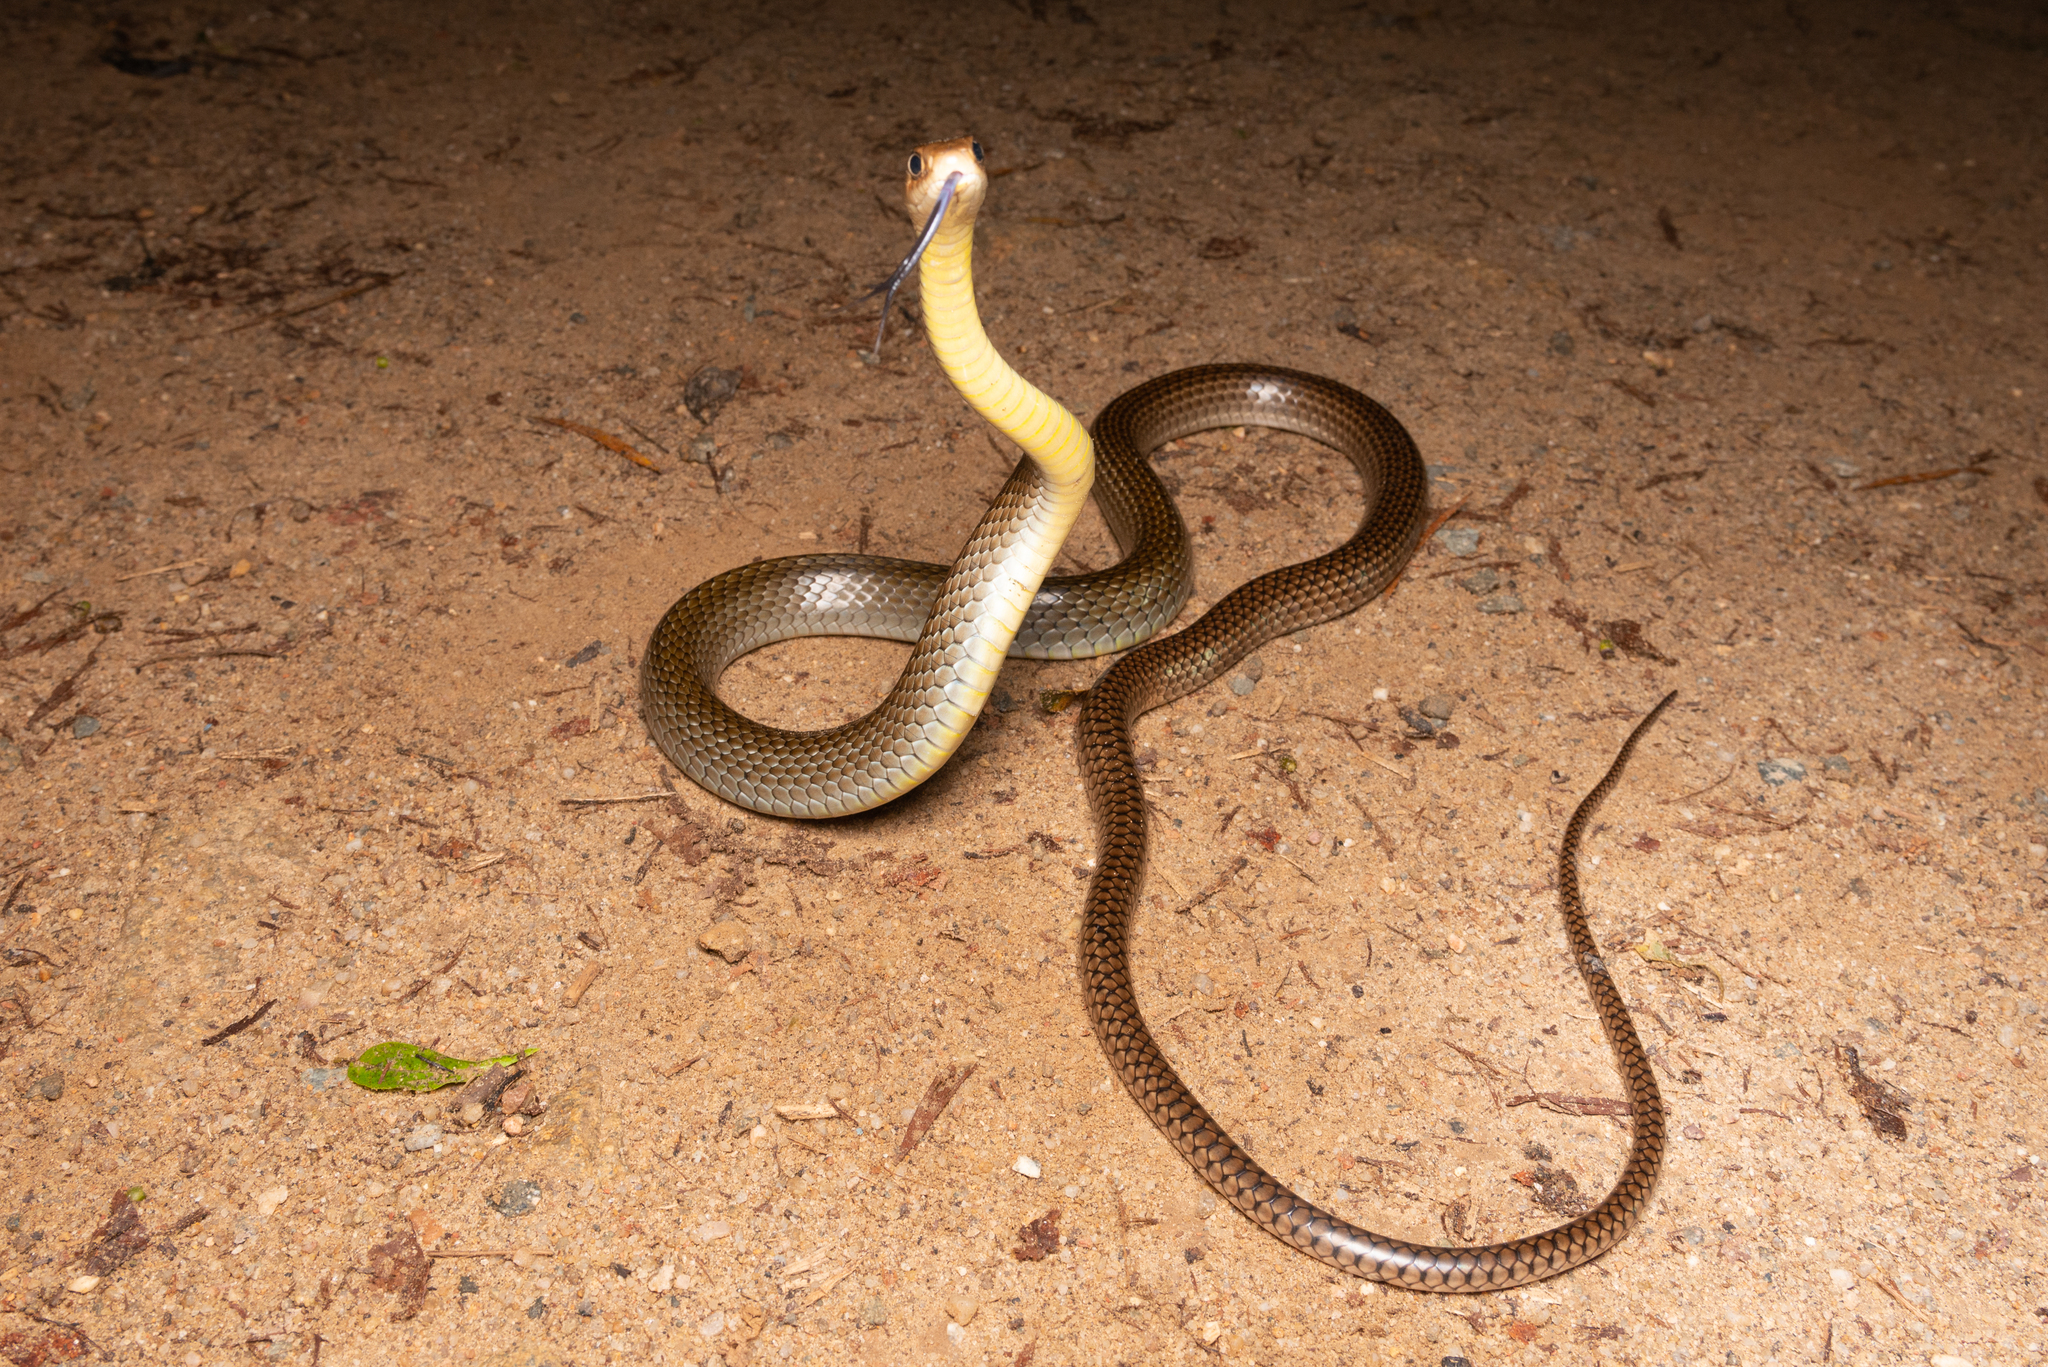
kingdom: Animalia
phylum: Chordata
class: Squamata
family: Colubridae
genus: Ptyas
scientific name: Ptyas korros
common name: Indo-chinese rat snake
